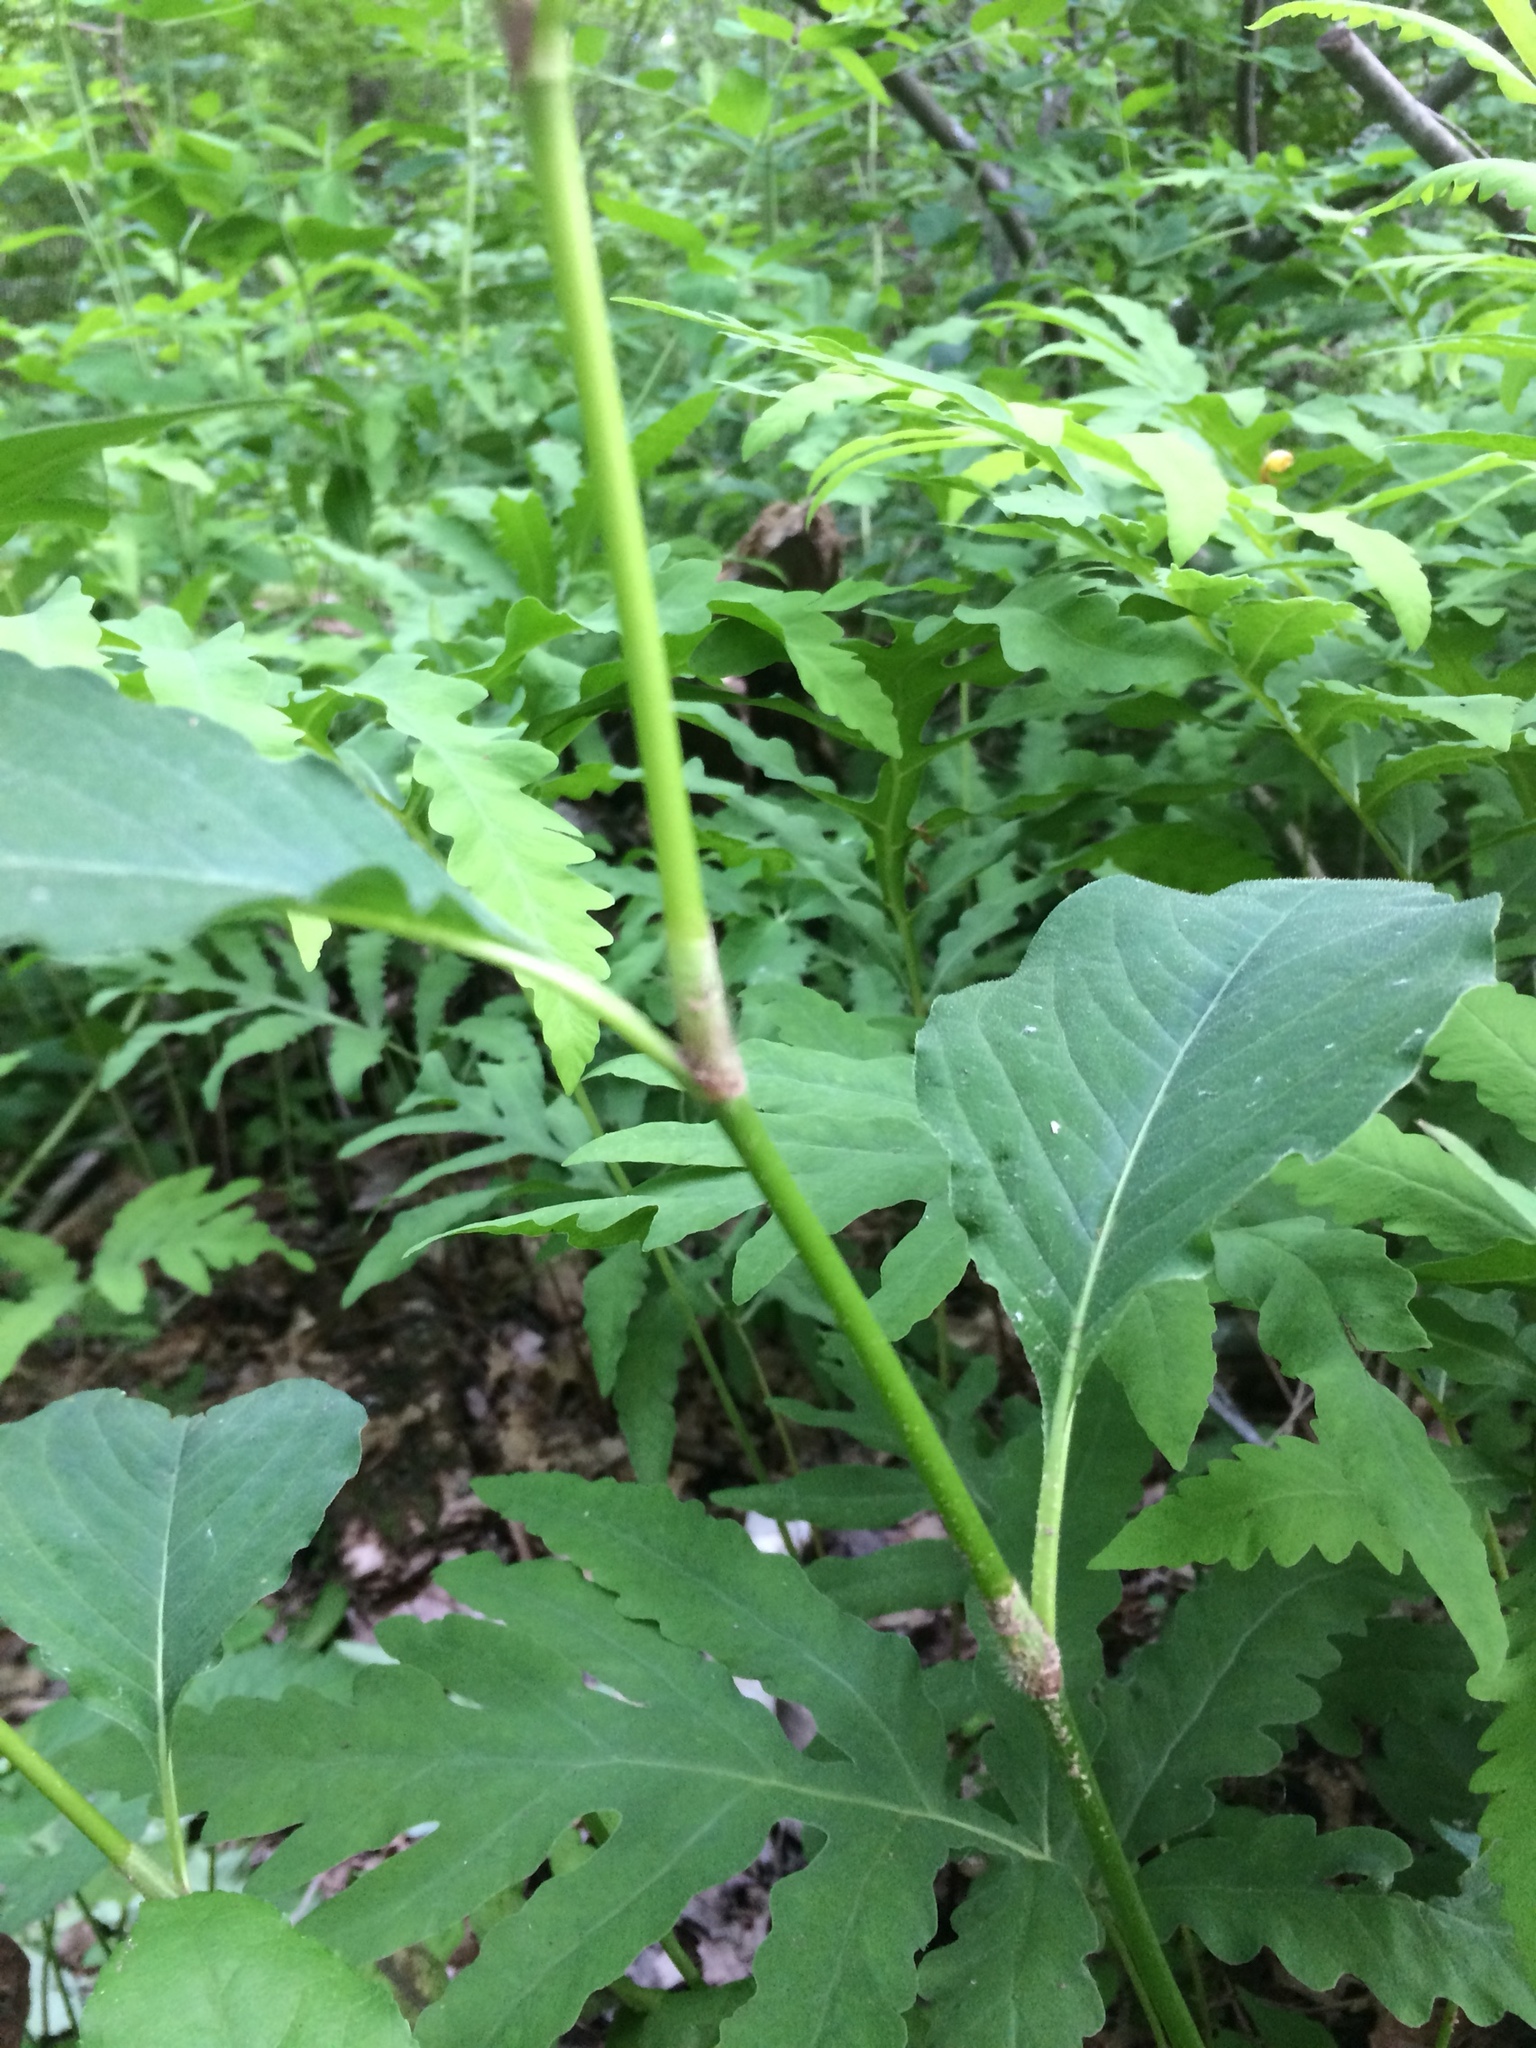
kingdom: Plantae
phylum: Tracheophyta
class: Magnoliopsida
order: Caryophyllales
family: Polygonaceae
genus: Persicaria
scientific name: Persicaria virginiana
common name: Jumpseed
